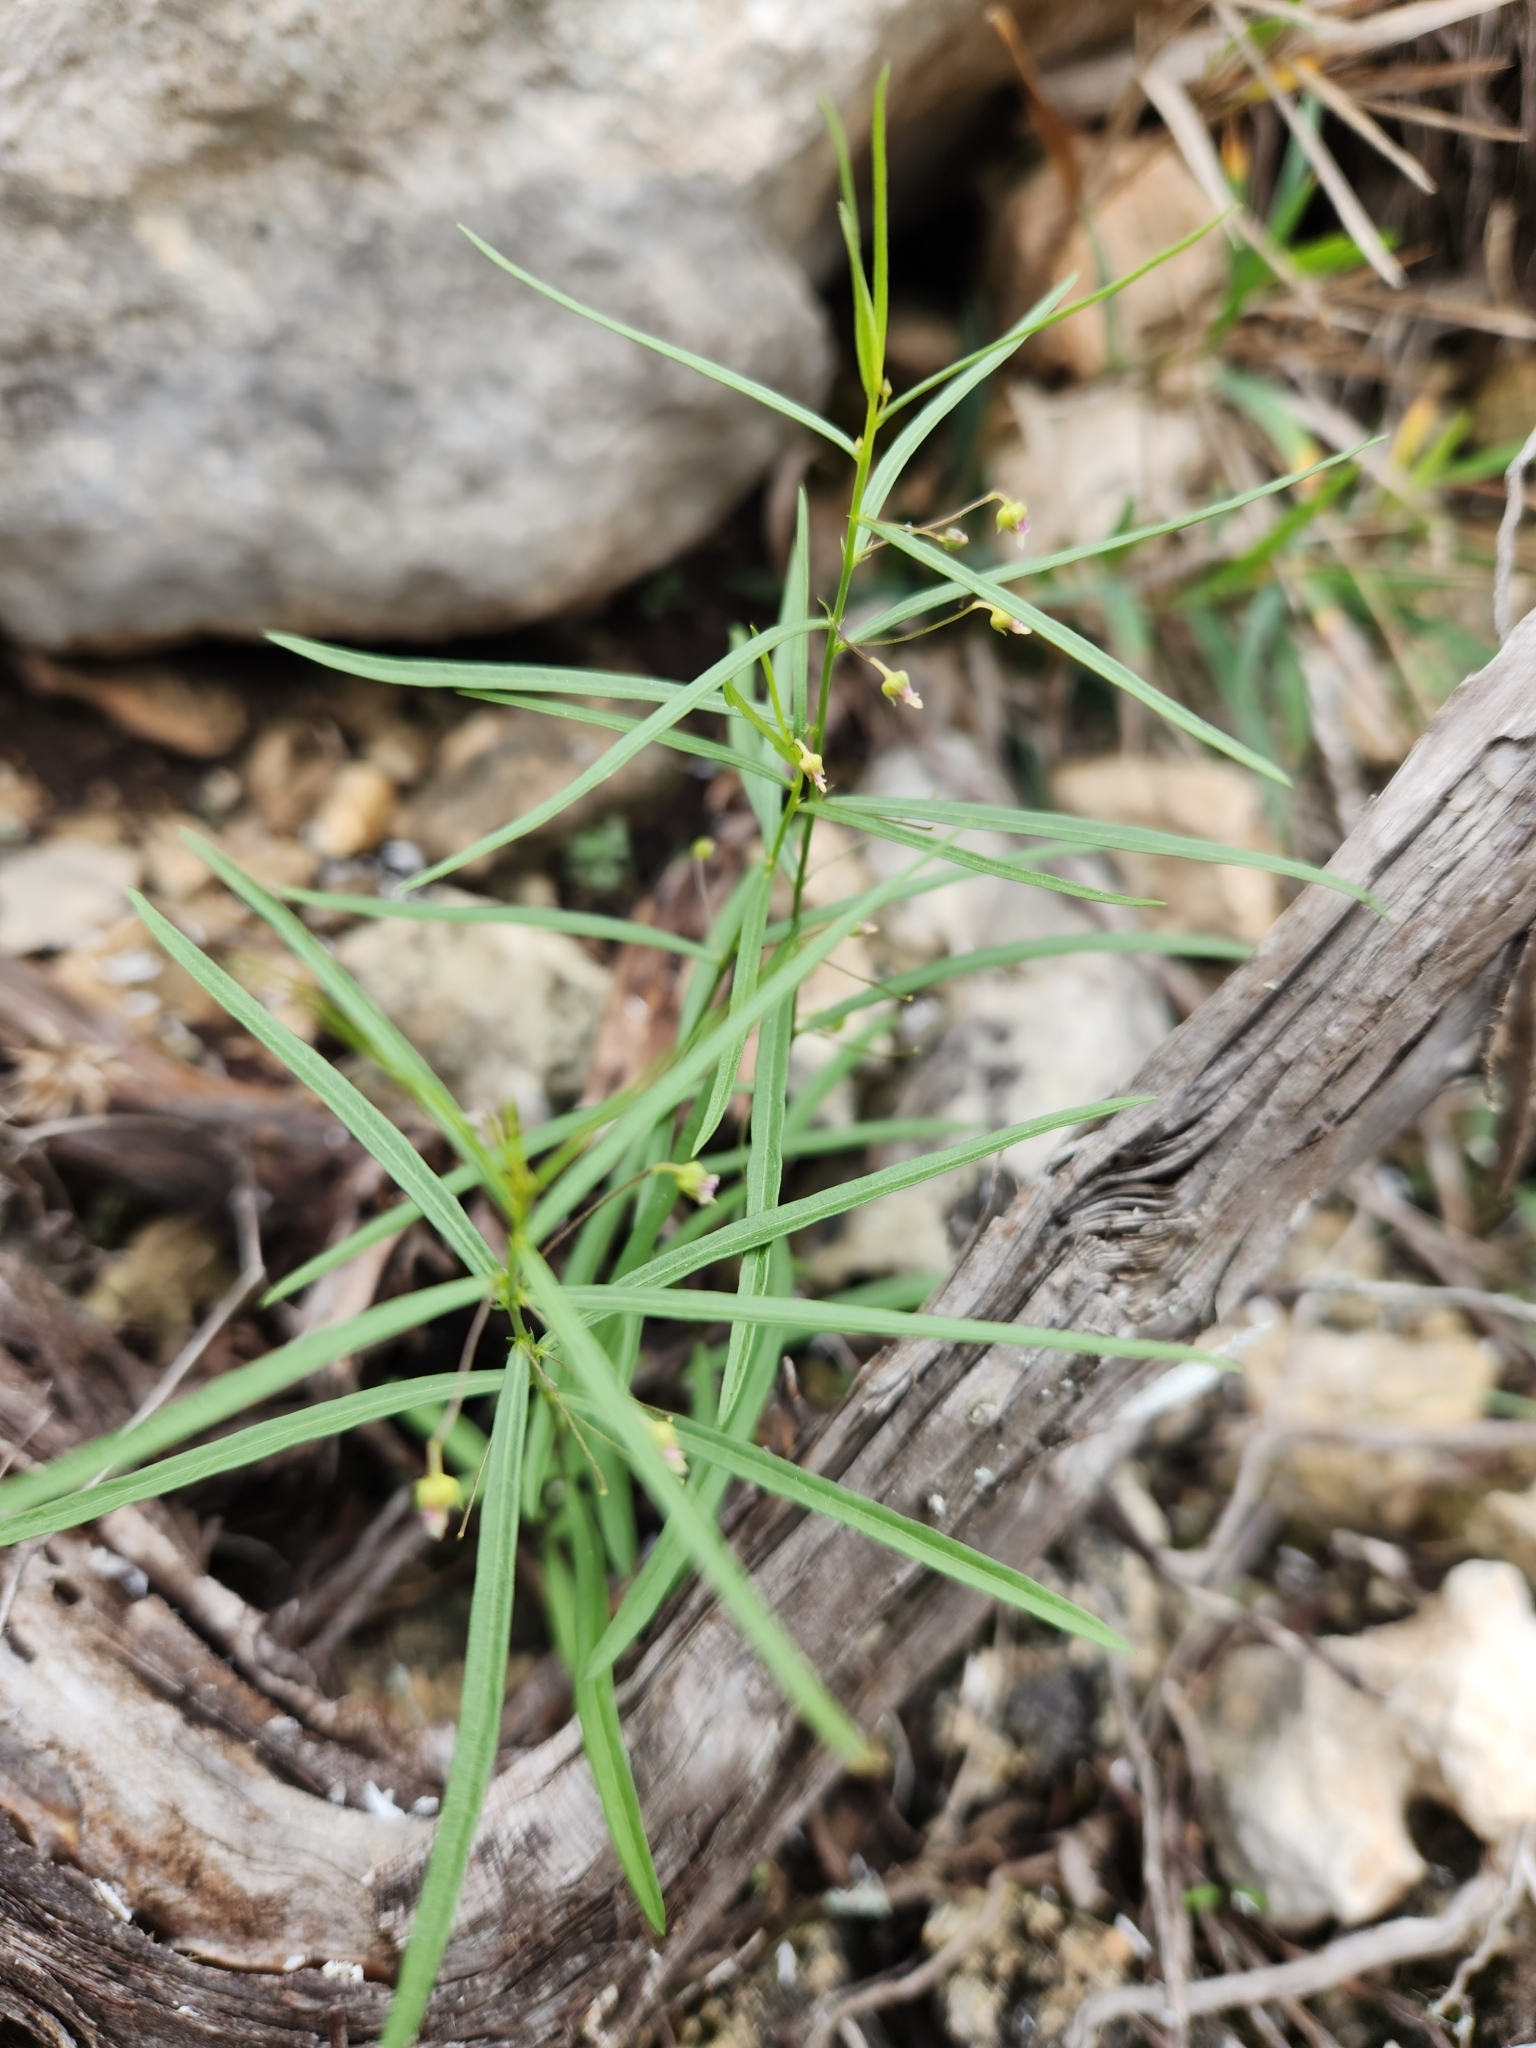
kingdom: Plantae
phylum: Tracheophyta
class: Magnoliopsida
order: Malpighiales
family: Violaceae
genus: Pombalia
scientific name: Pombalia verticillata
